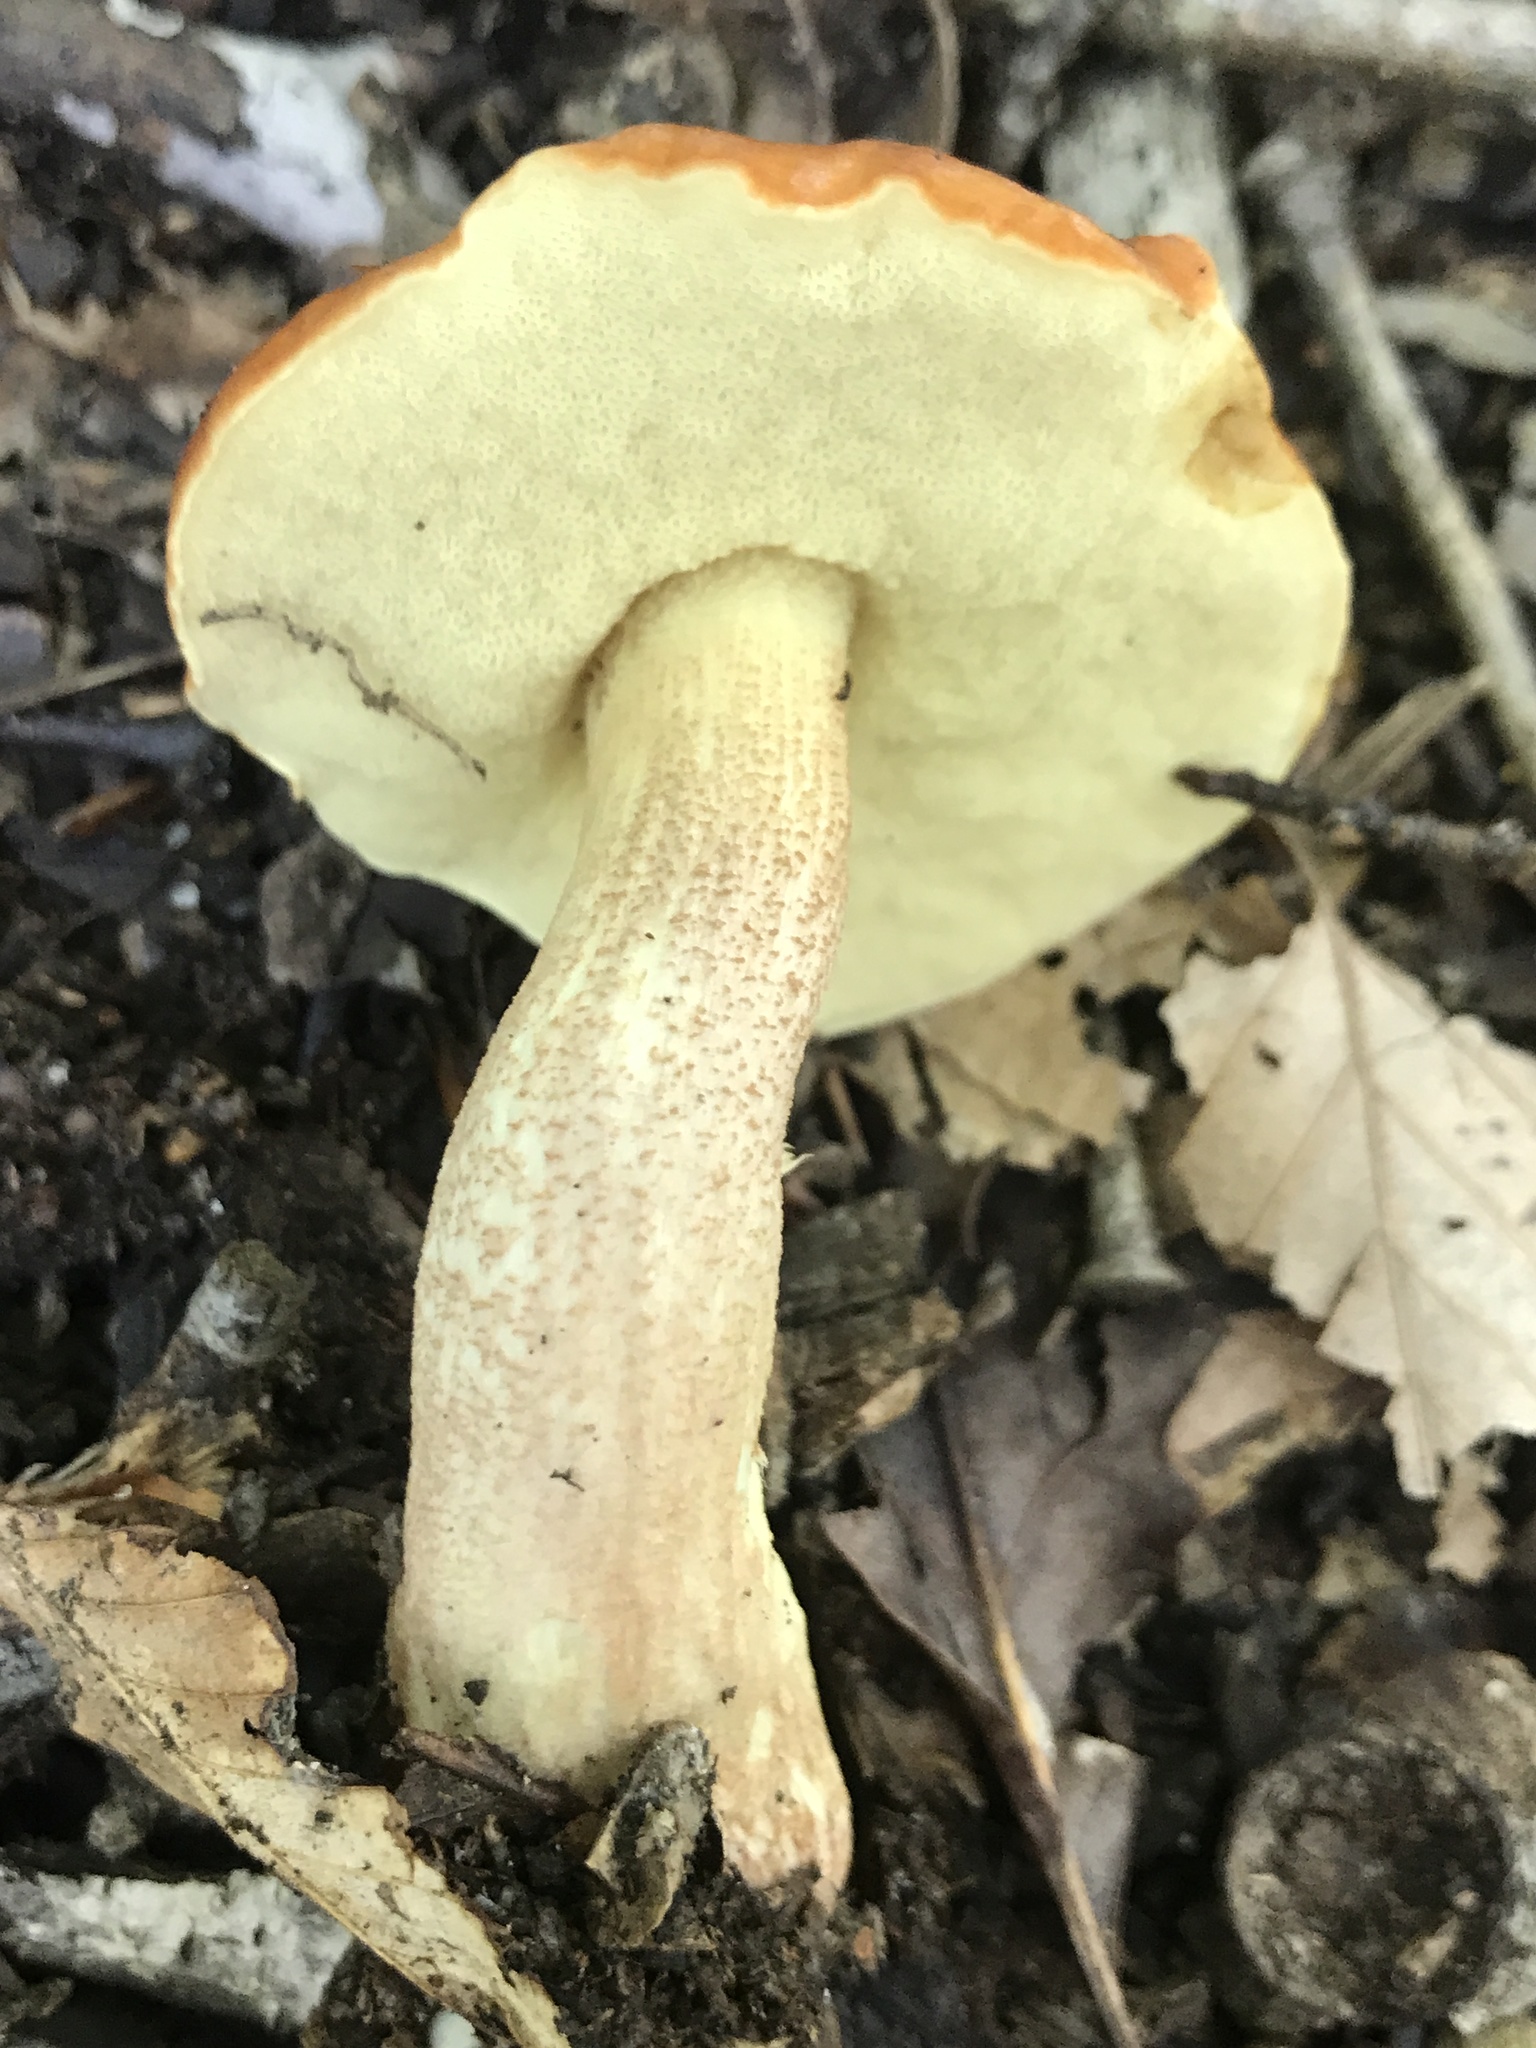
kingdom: Fungi
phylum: Basidiomycota
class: Agaricomycetes
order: Boletales
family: Boletaceae
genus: Leccinum
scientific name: Leccinum longicurvipes
